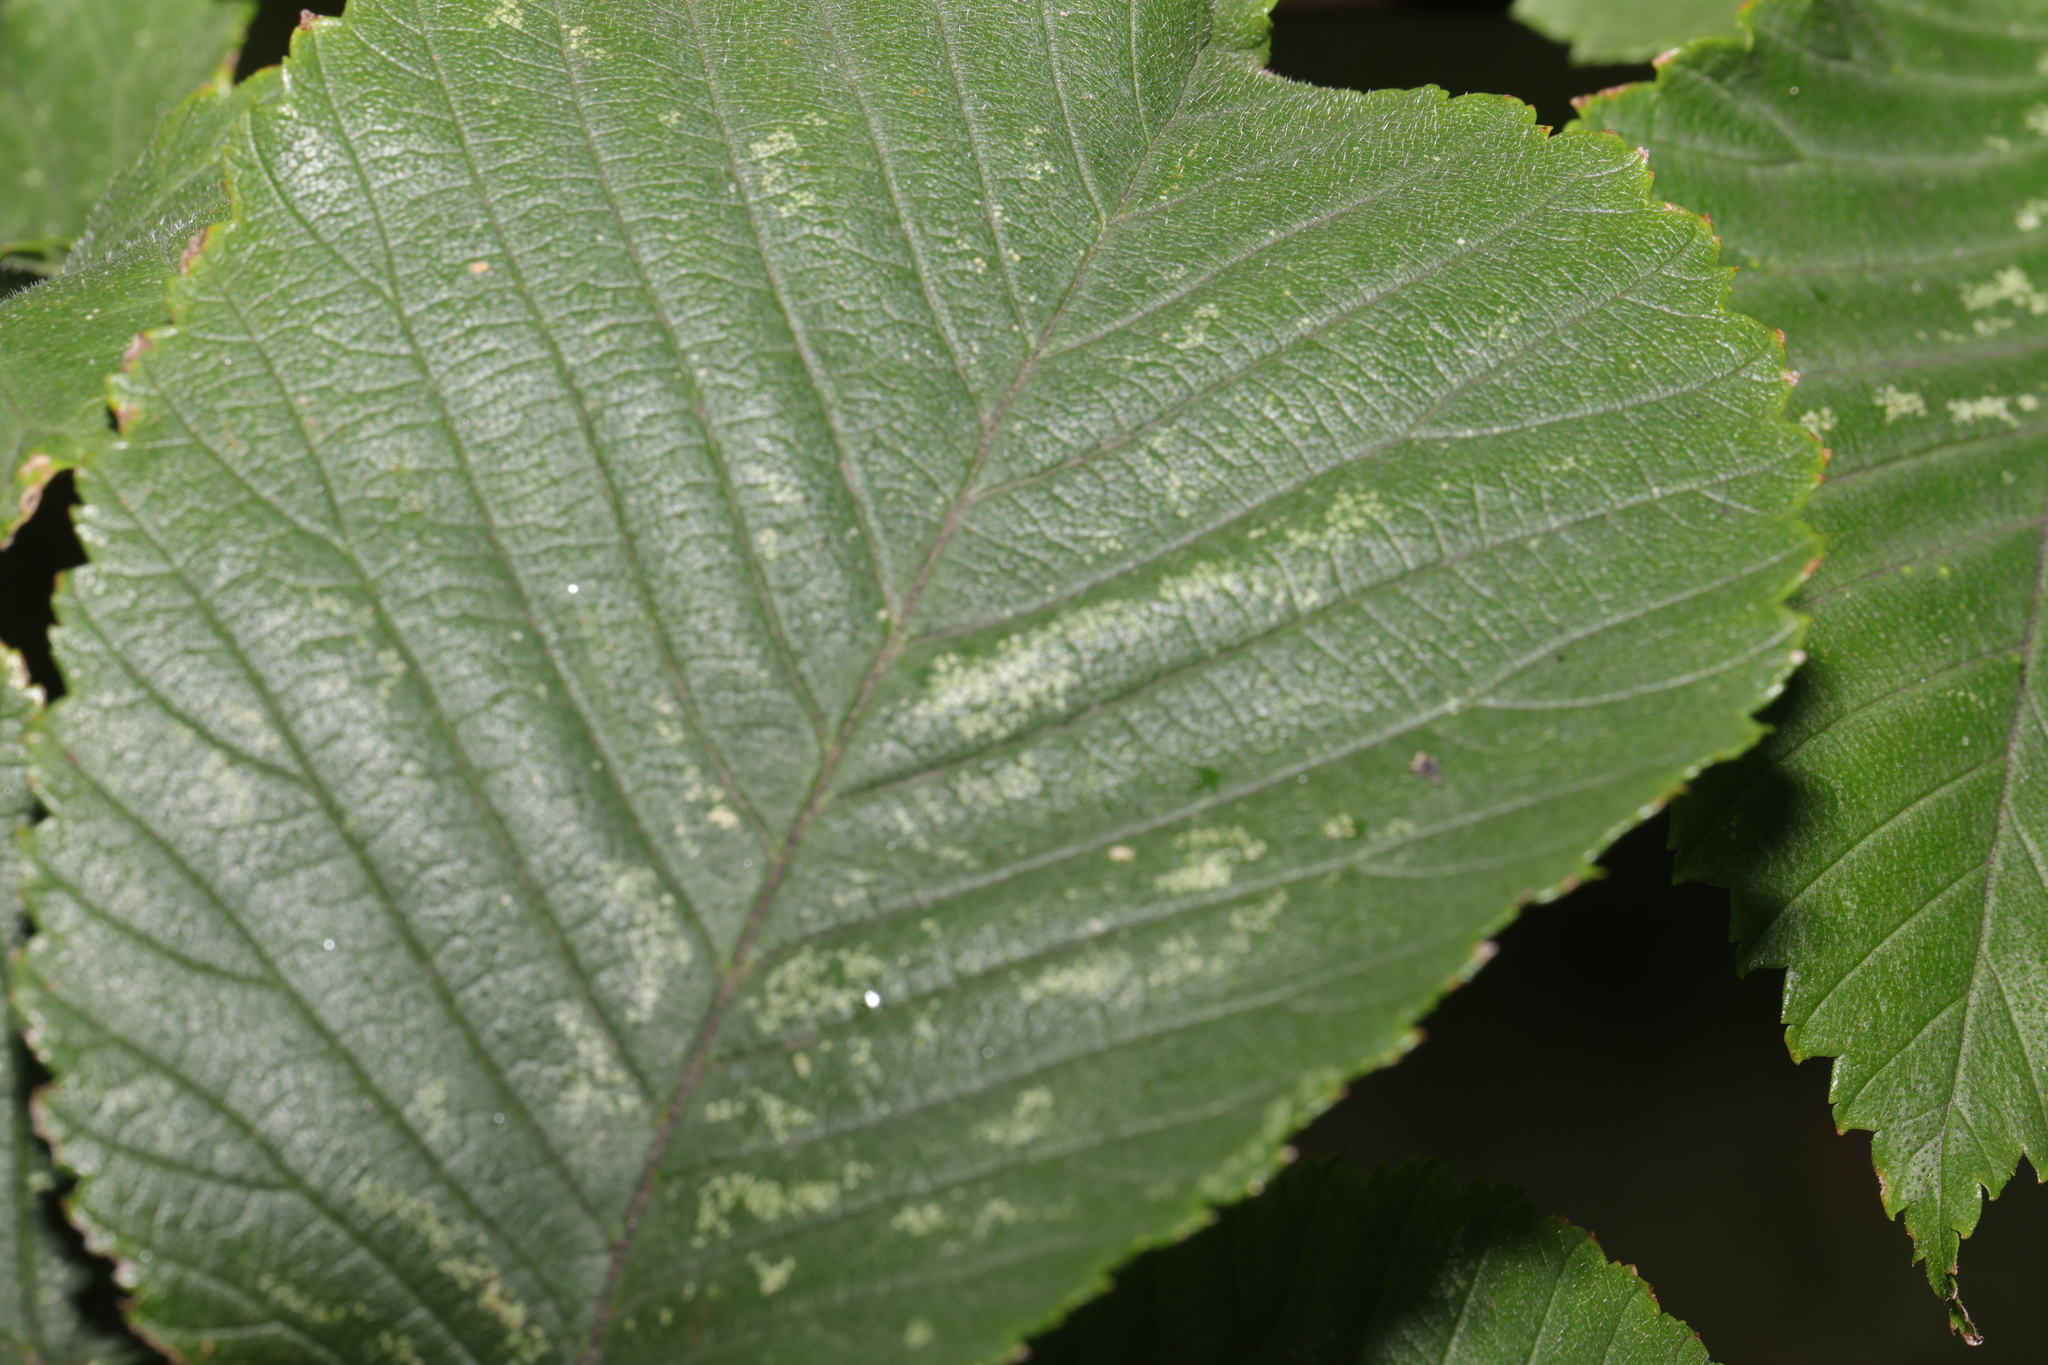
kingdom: Plantae
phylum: Tracheophyta
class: Magnoliopsida
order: Rosales
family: Ulmaceae
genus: Ulmus
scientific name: Ulmus glabra
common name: Wych elm
